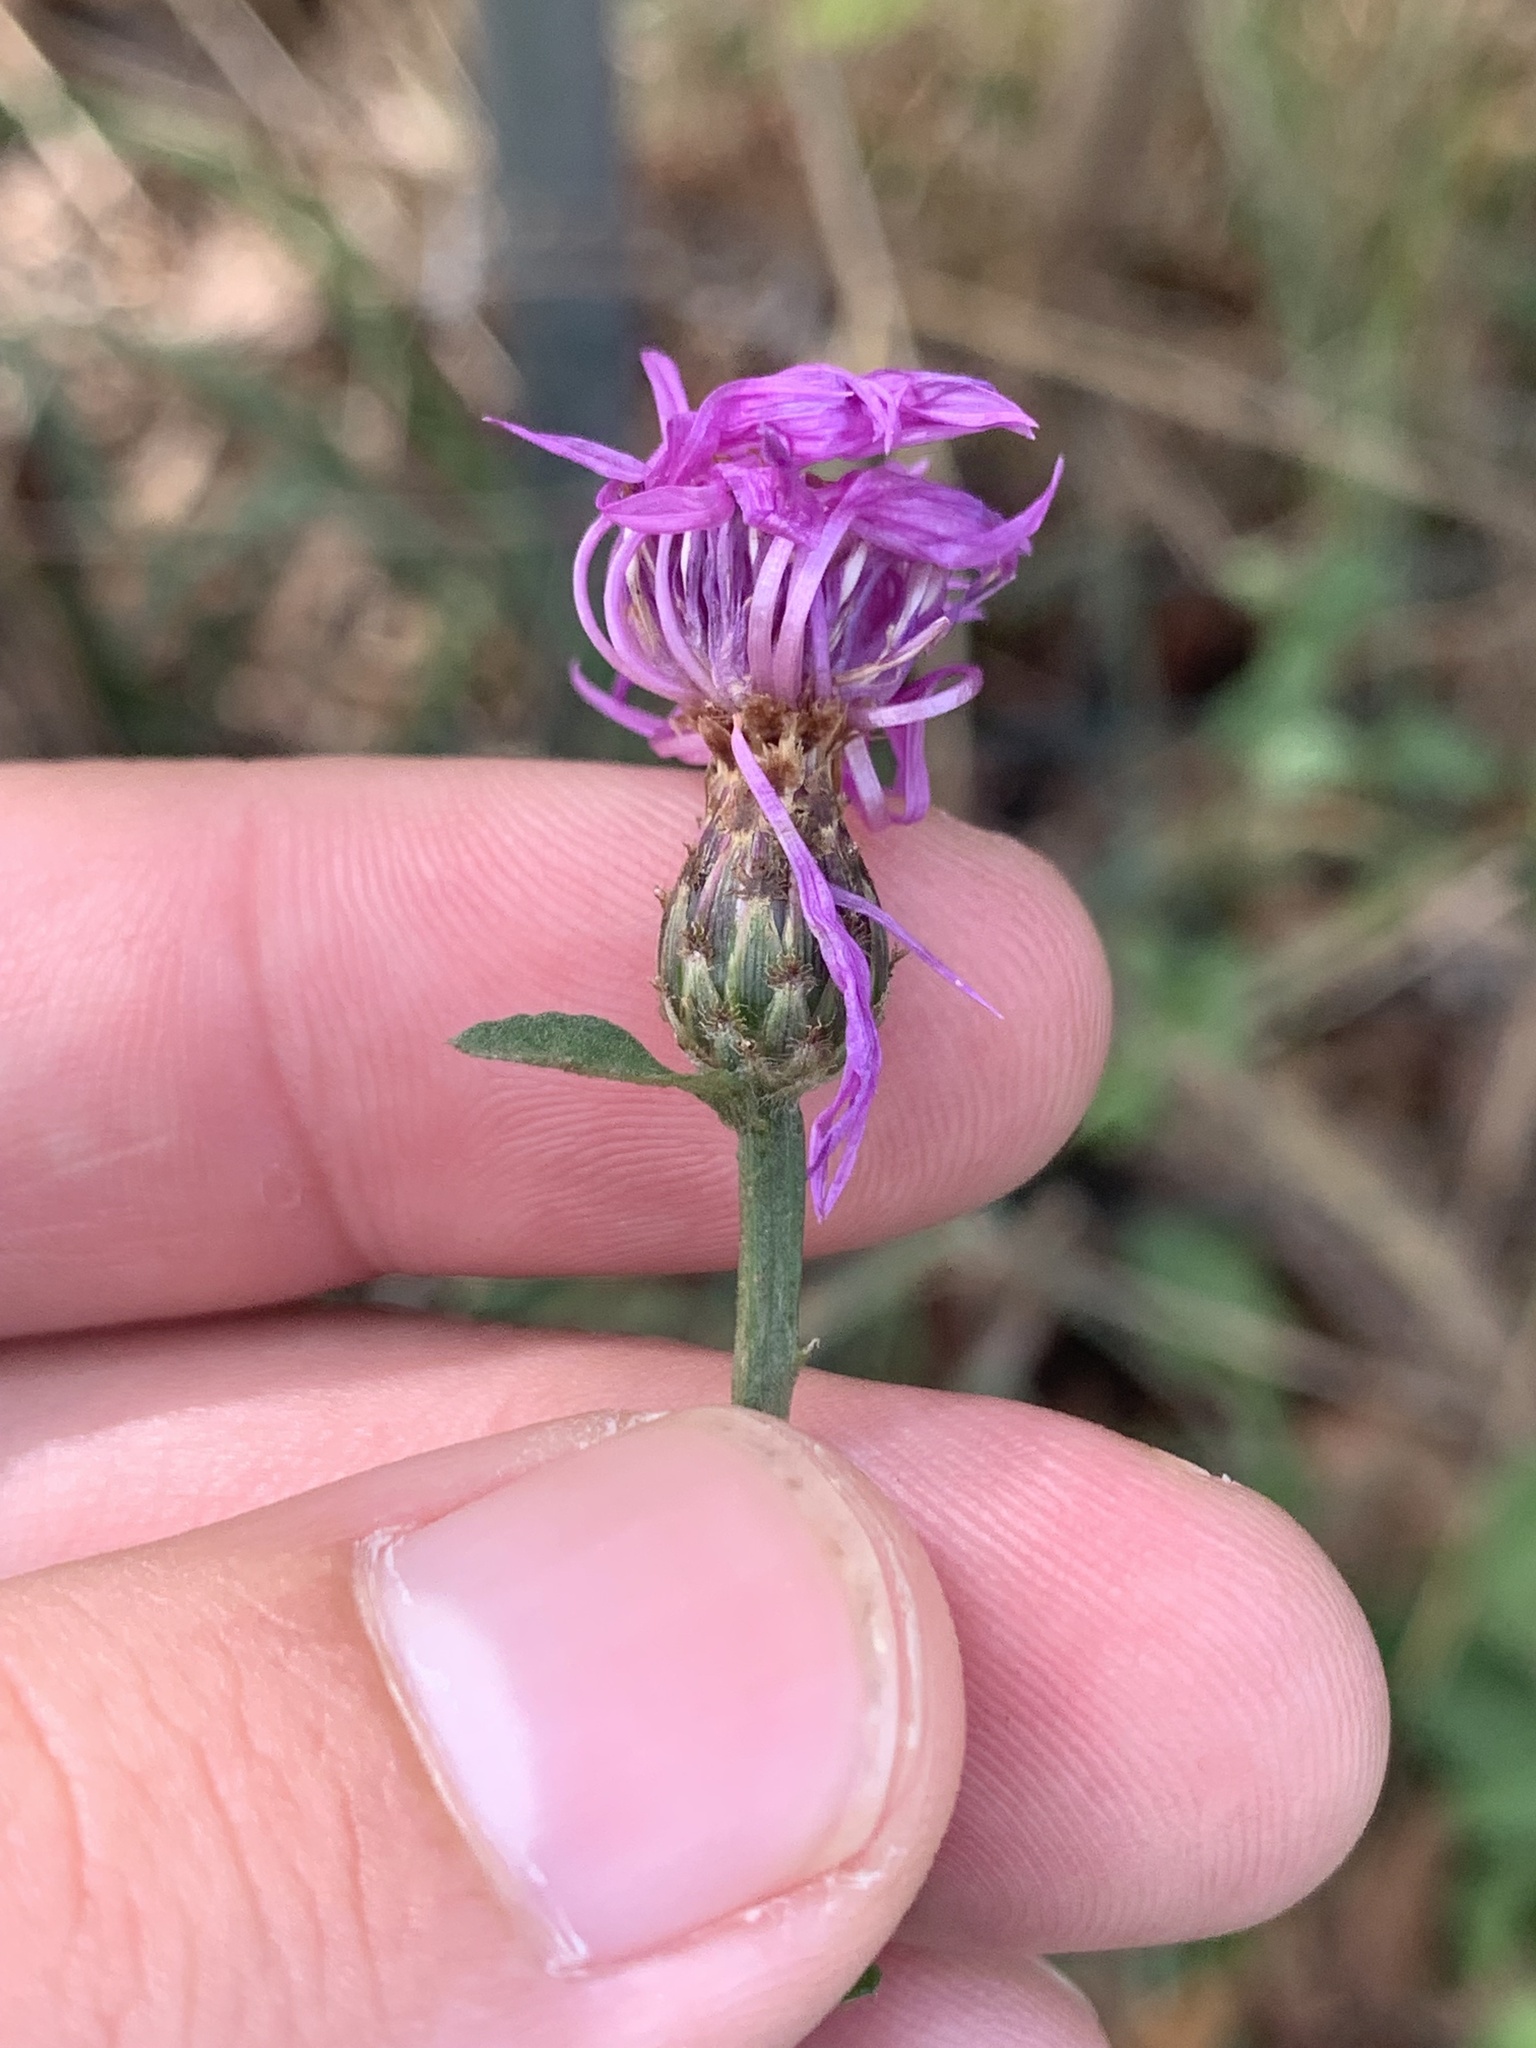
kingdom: Plantae
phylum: Tracheophyta
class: Magnoliopsida
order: Asterales
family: Asteraceae
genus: Centaurea
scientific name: Centaurea nigrescens
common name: Tyrol knapweed
